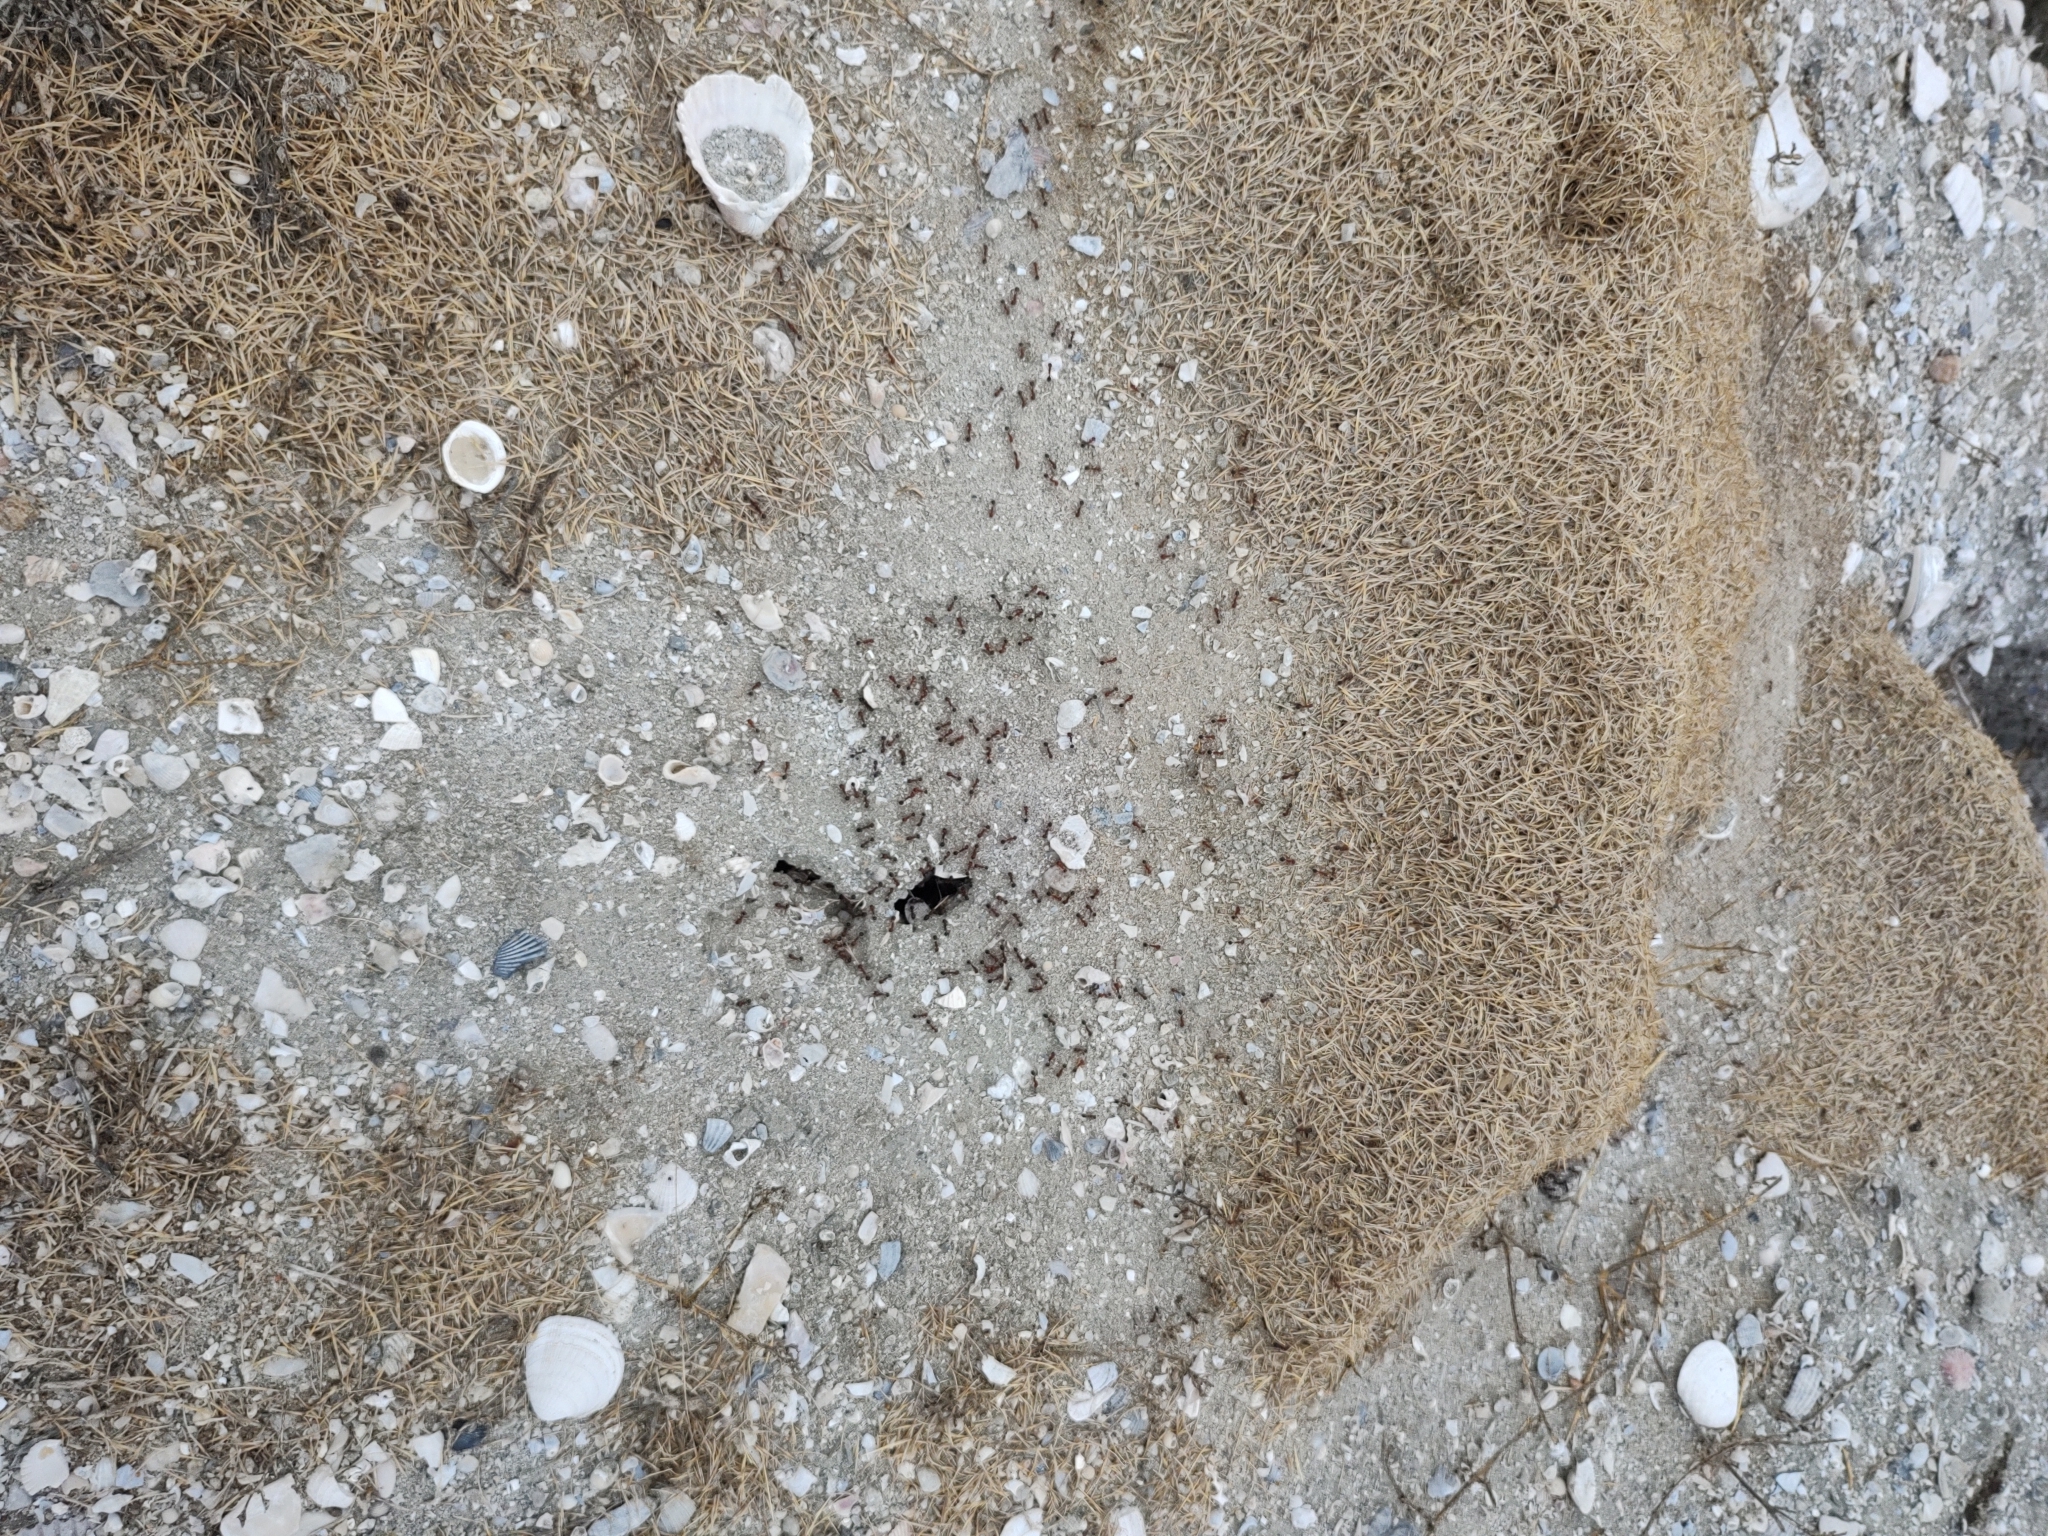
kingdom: Animalia
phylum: Arthropoda
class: Insecta
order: Hymenoptera
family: Formicidae
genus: Messor
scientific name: Messor julianus
